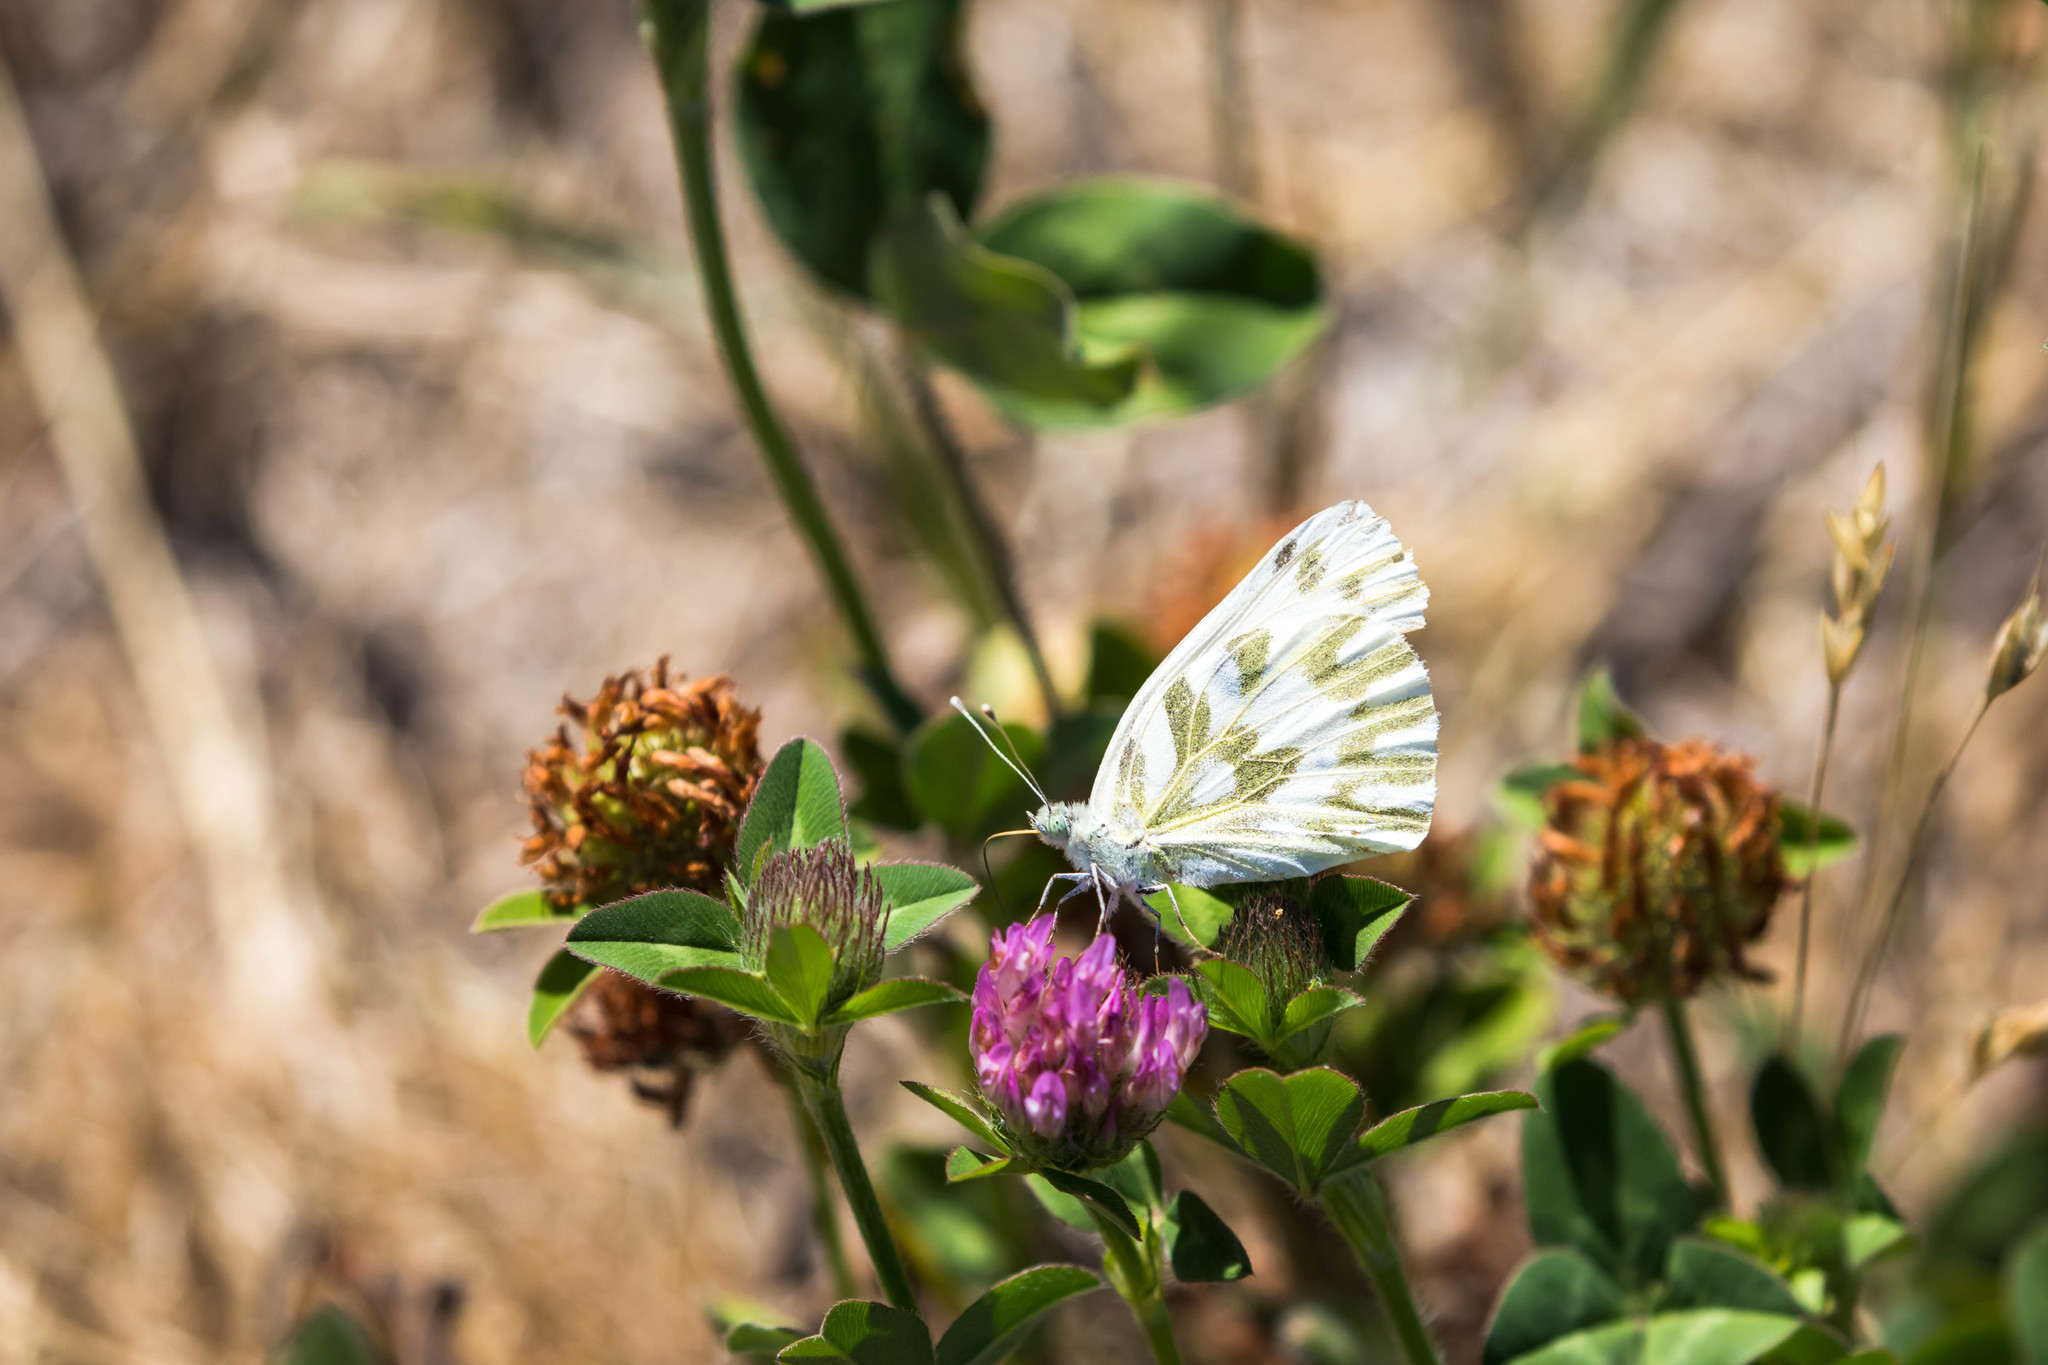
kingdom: Animalia
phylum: Arthropoda
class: Insecta
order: Lepidoptera
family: Pieridae
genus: Pontia
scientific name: Pontia beckerii
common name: Becker's white
